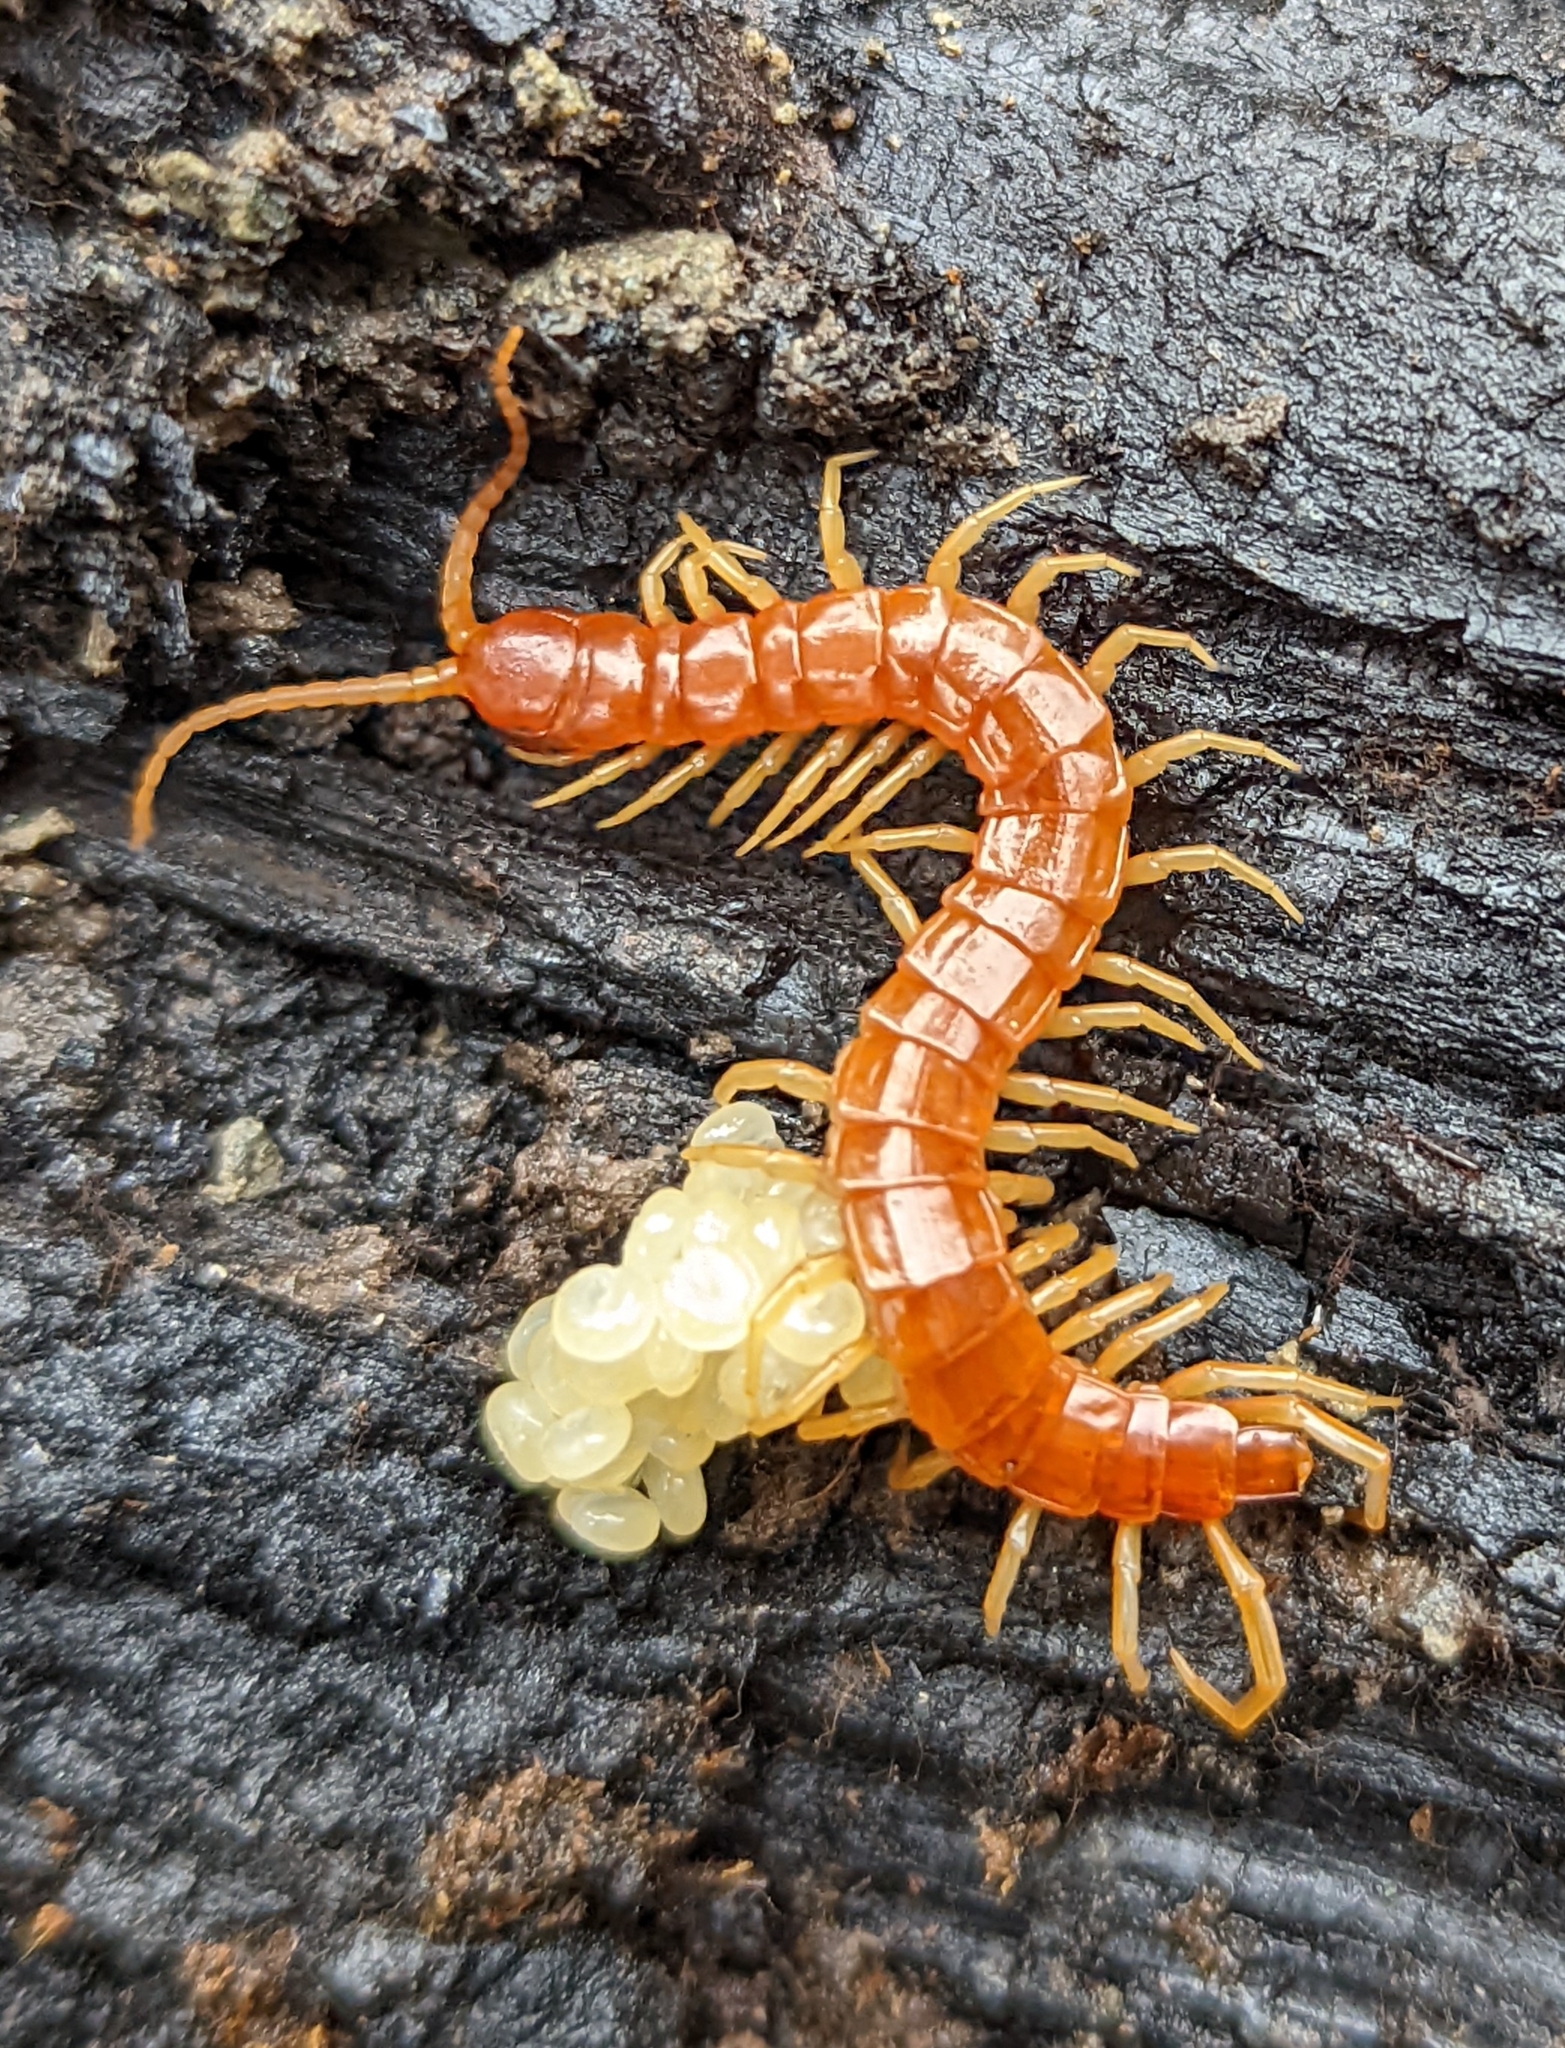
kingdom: Animalia
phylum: Arthropoda
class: Chilopoda
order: Scolopendromorpha
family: Scolopocryptopidae
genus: Scolopocryptops
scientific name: Scolopocryptops gracilis
